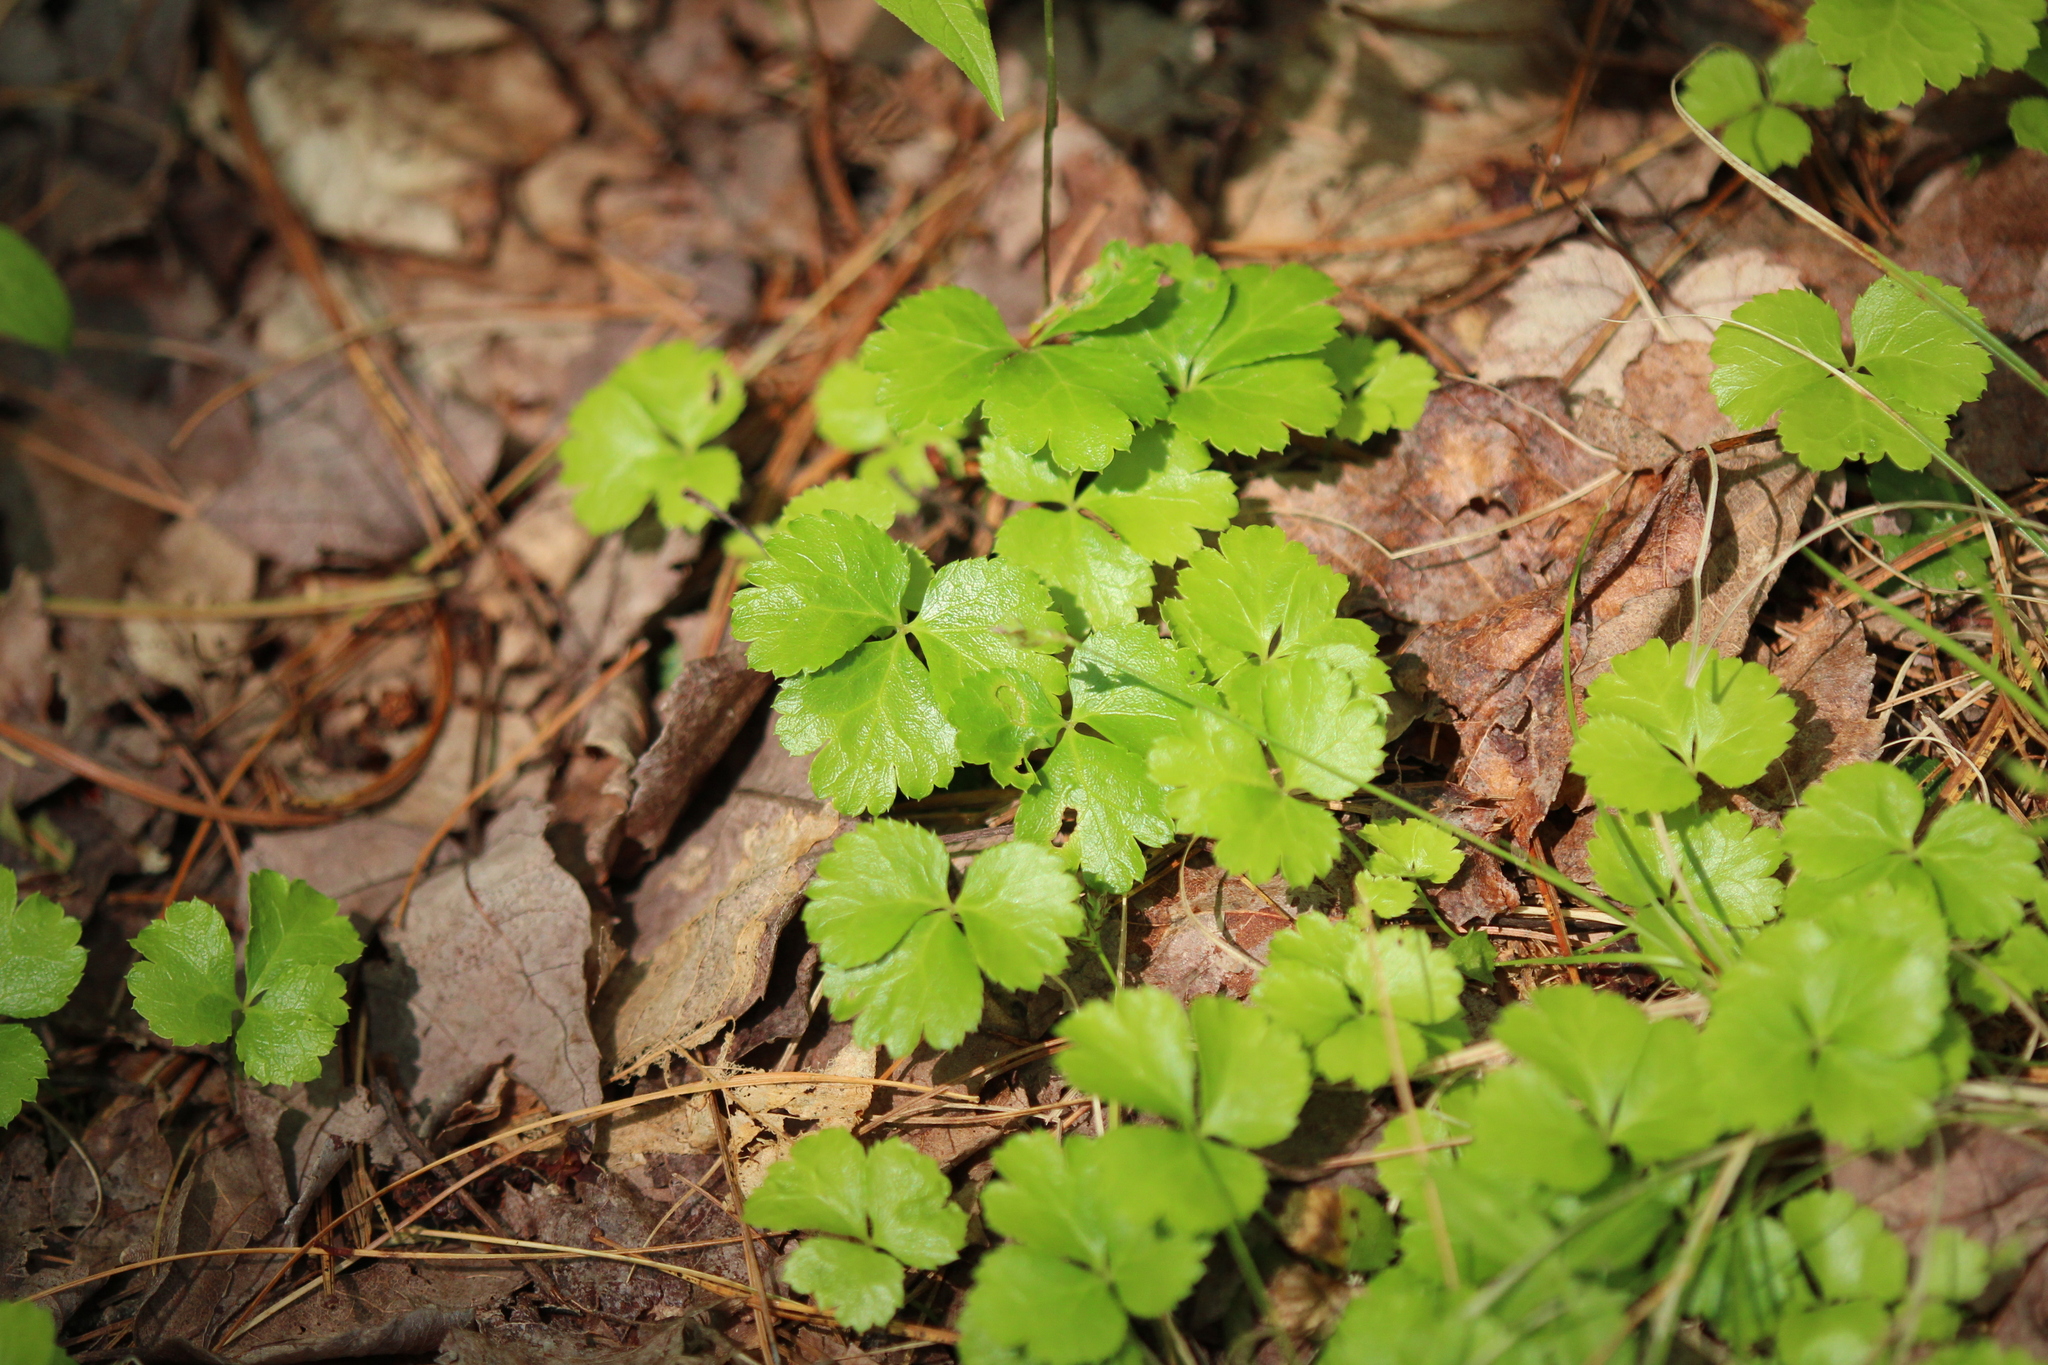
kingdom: Plantae
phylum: Tracheophyta
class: Magnoliopsida
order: Ranunculales
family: Ranunculaceae
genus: Coptis
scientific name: Coptis trifolia
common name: Canker-root
